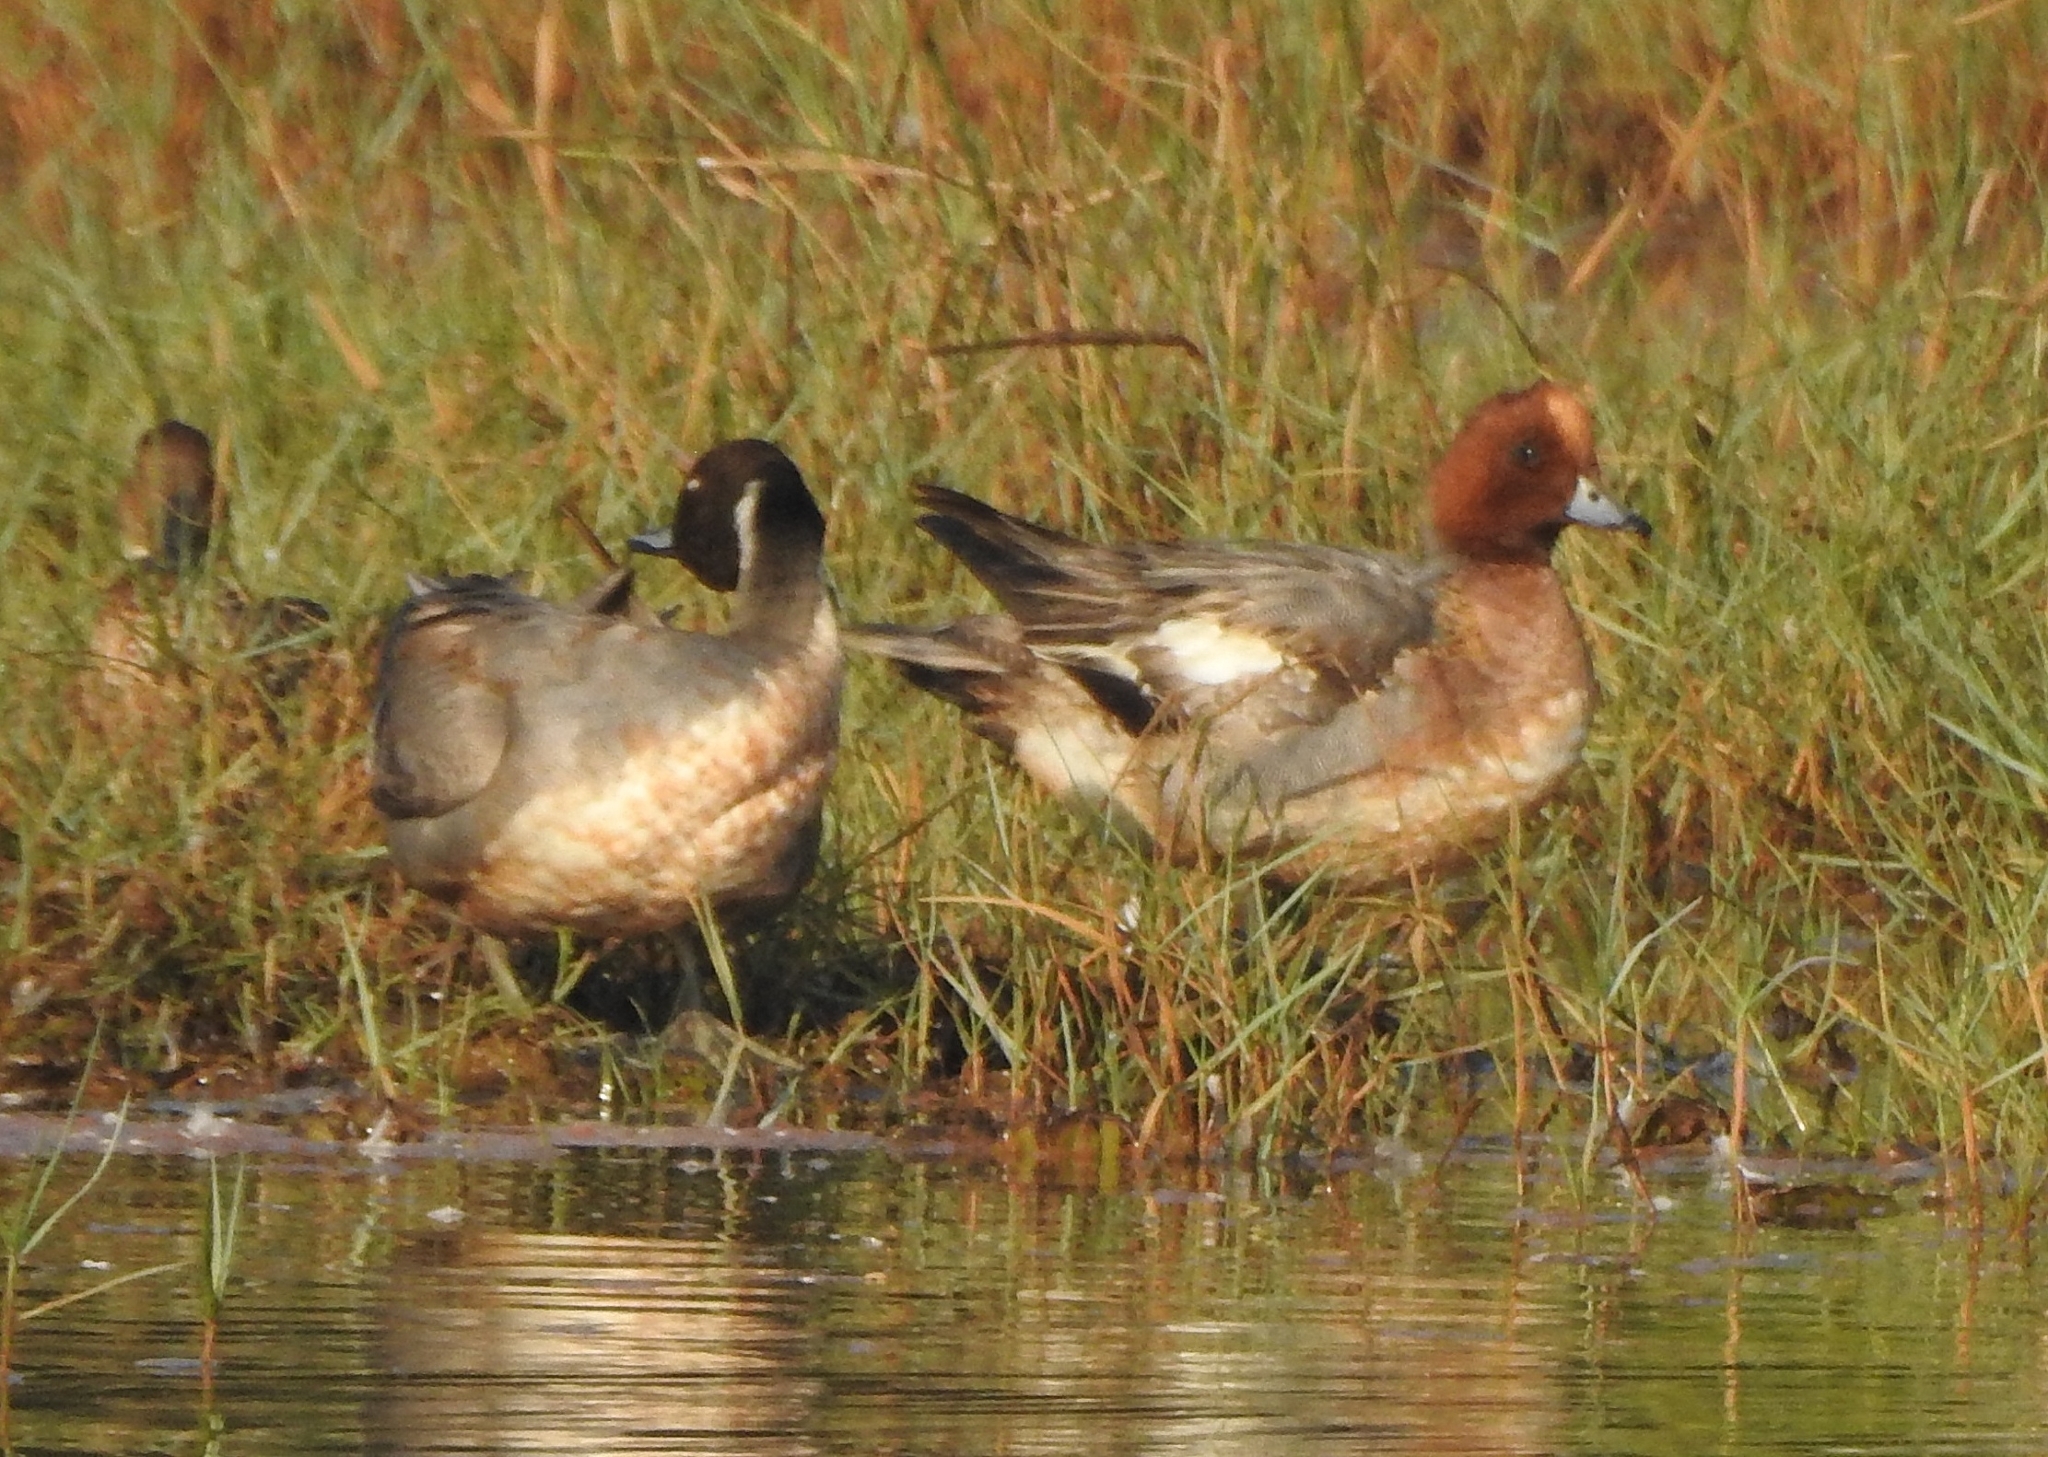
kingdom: Animalia
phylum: Chordata
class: Aves
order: Anseriformes
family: Anatidae
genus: Mareca
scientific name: Mareca penelope
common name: Eurasian wigeon
